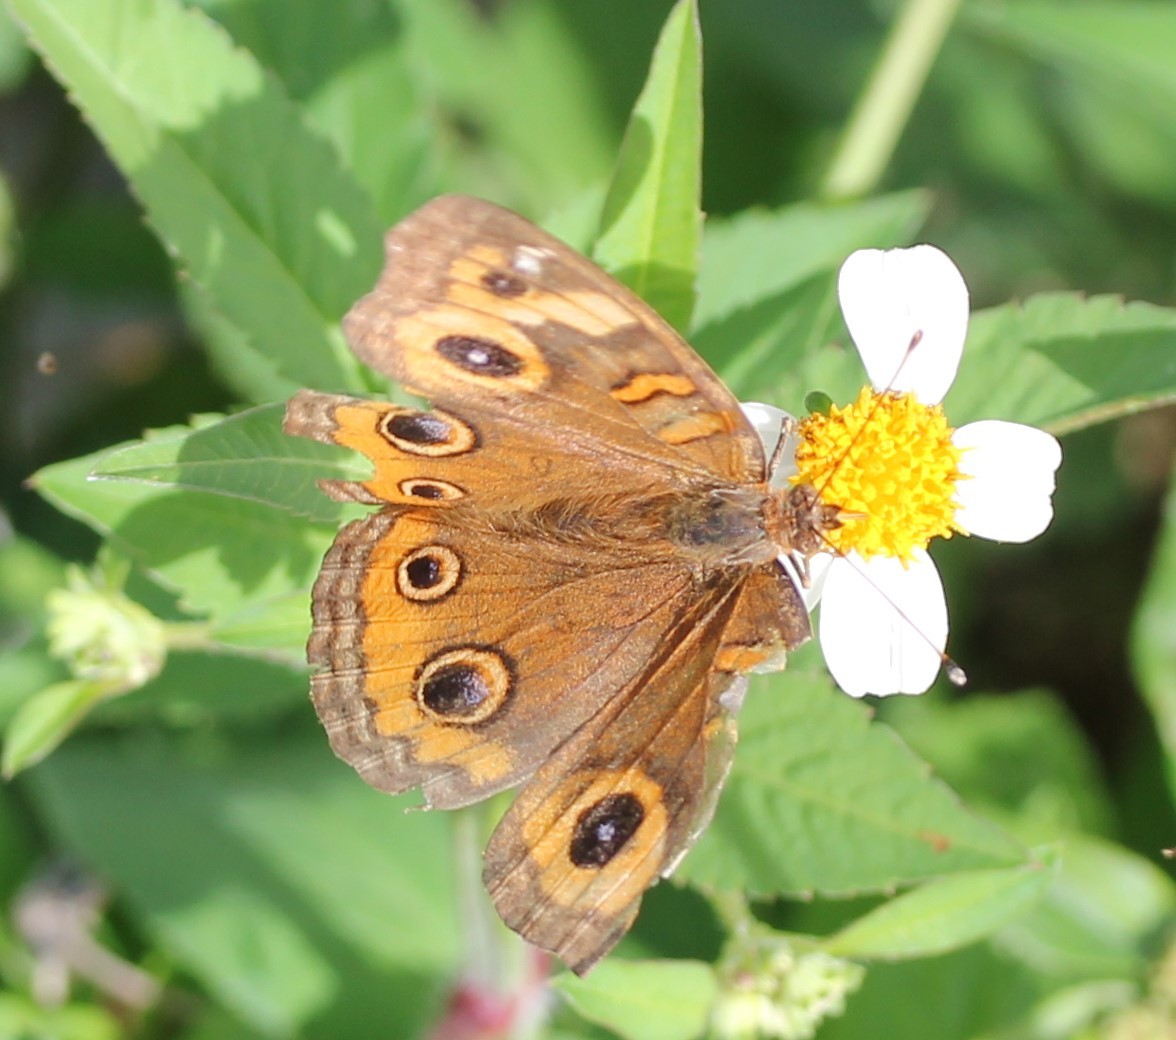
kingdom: Animalia
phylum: Arthropoda
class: Insecta
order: Lepidoptera
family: Nymphalidae
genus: Junonia
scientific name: Junonia neildi
